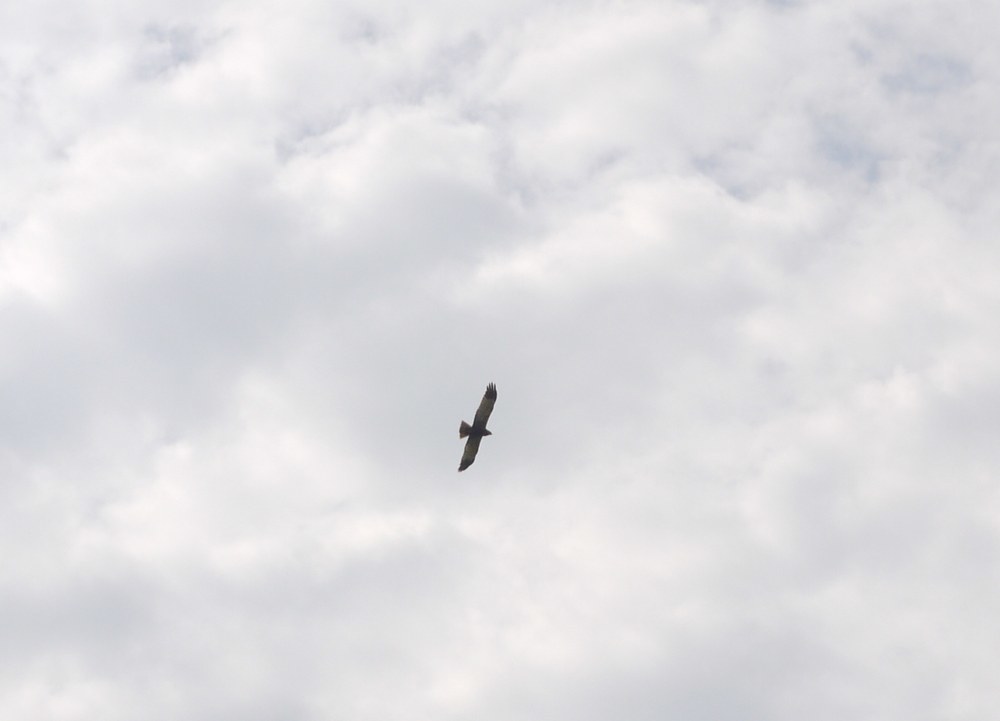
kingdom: Animalia
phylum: Chordata
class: Aves
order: Accipitriformes
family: Accipitridae
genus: Circus
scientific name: Circus aeruginosus
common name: Western marsh harrier
